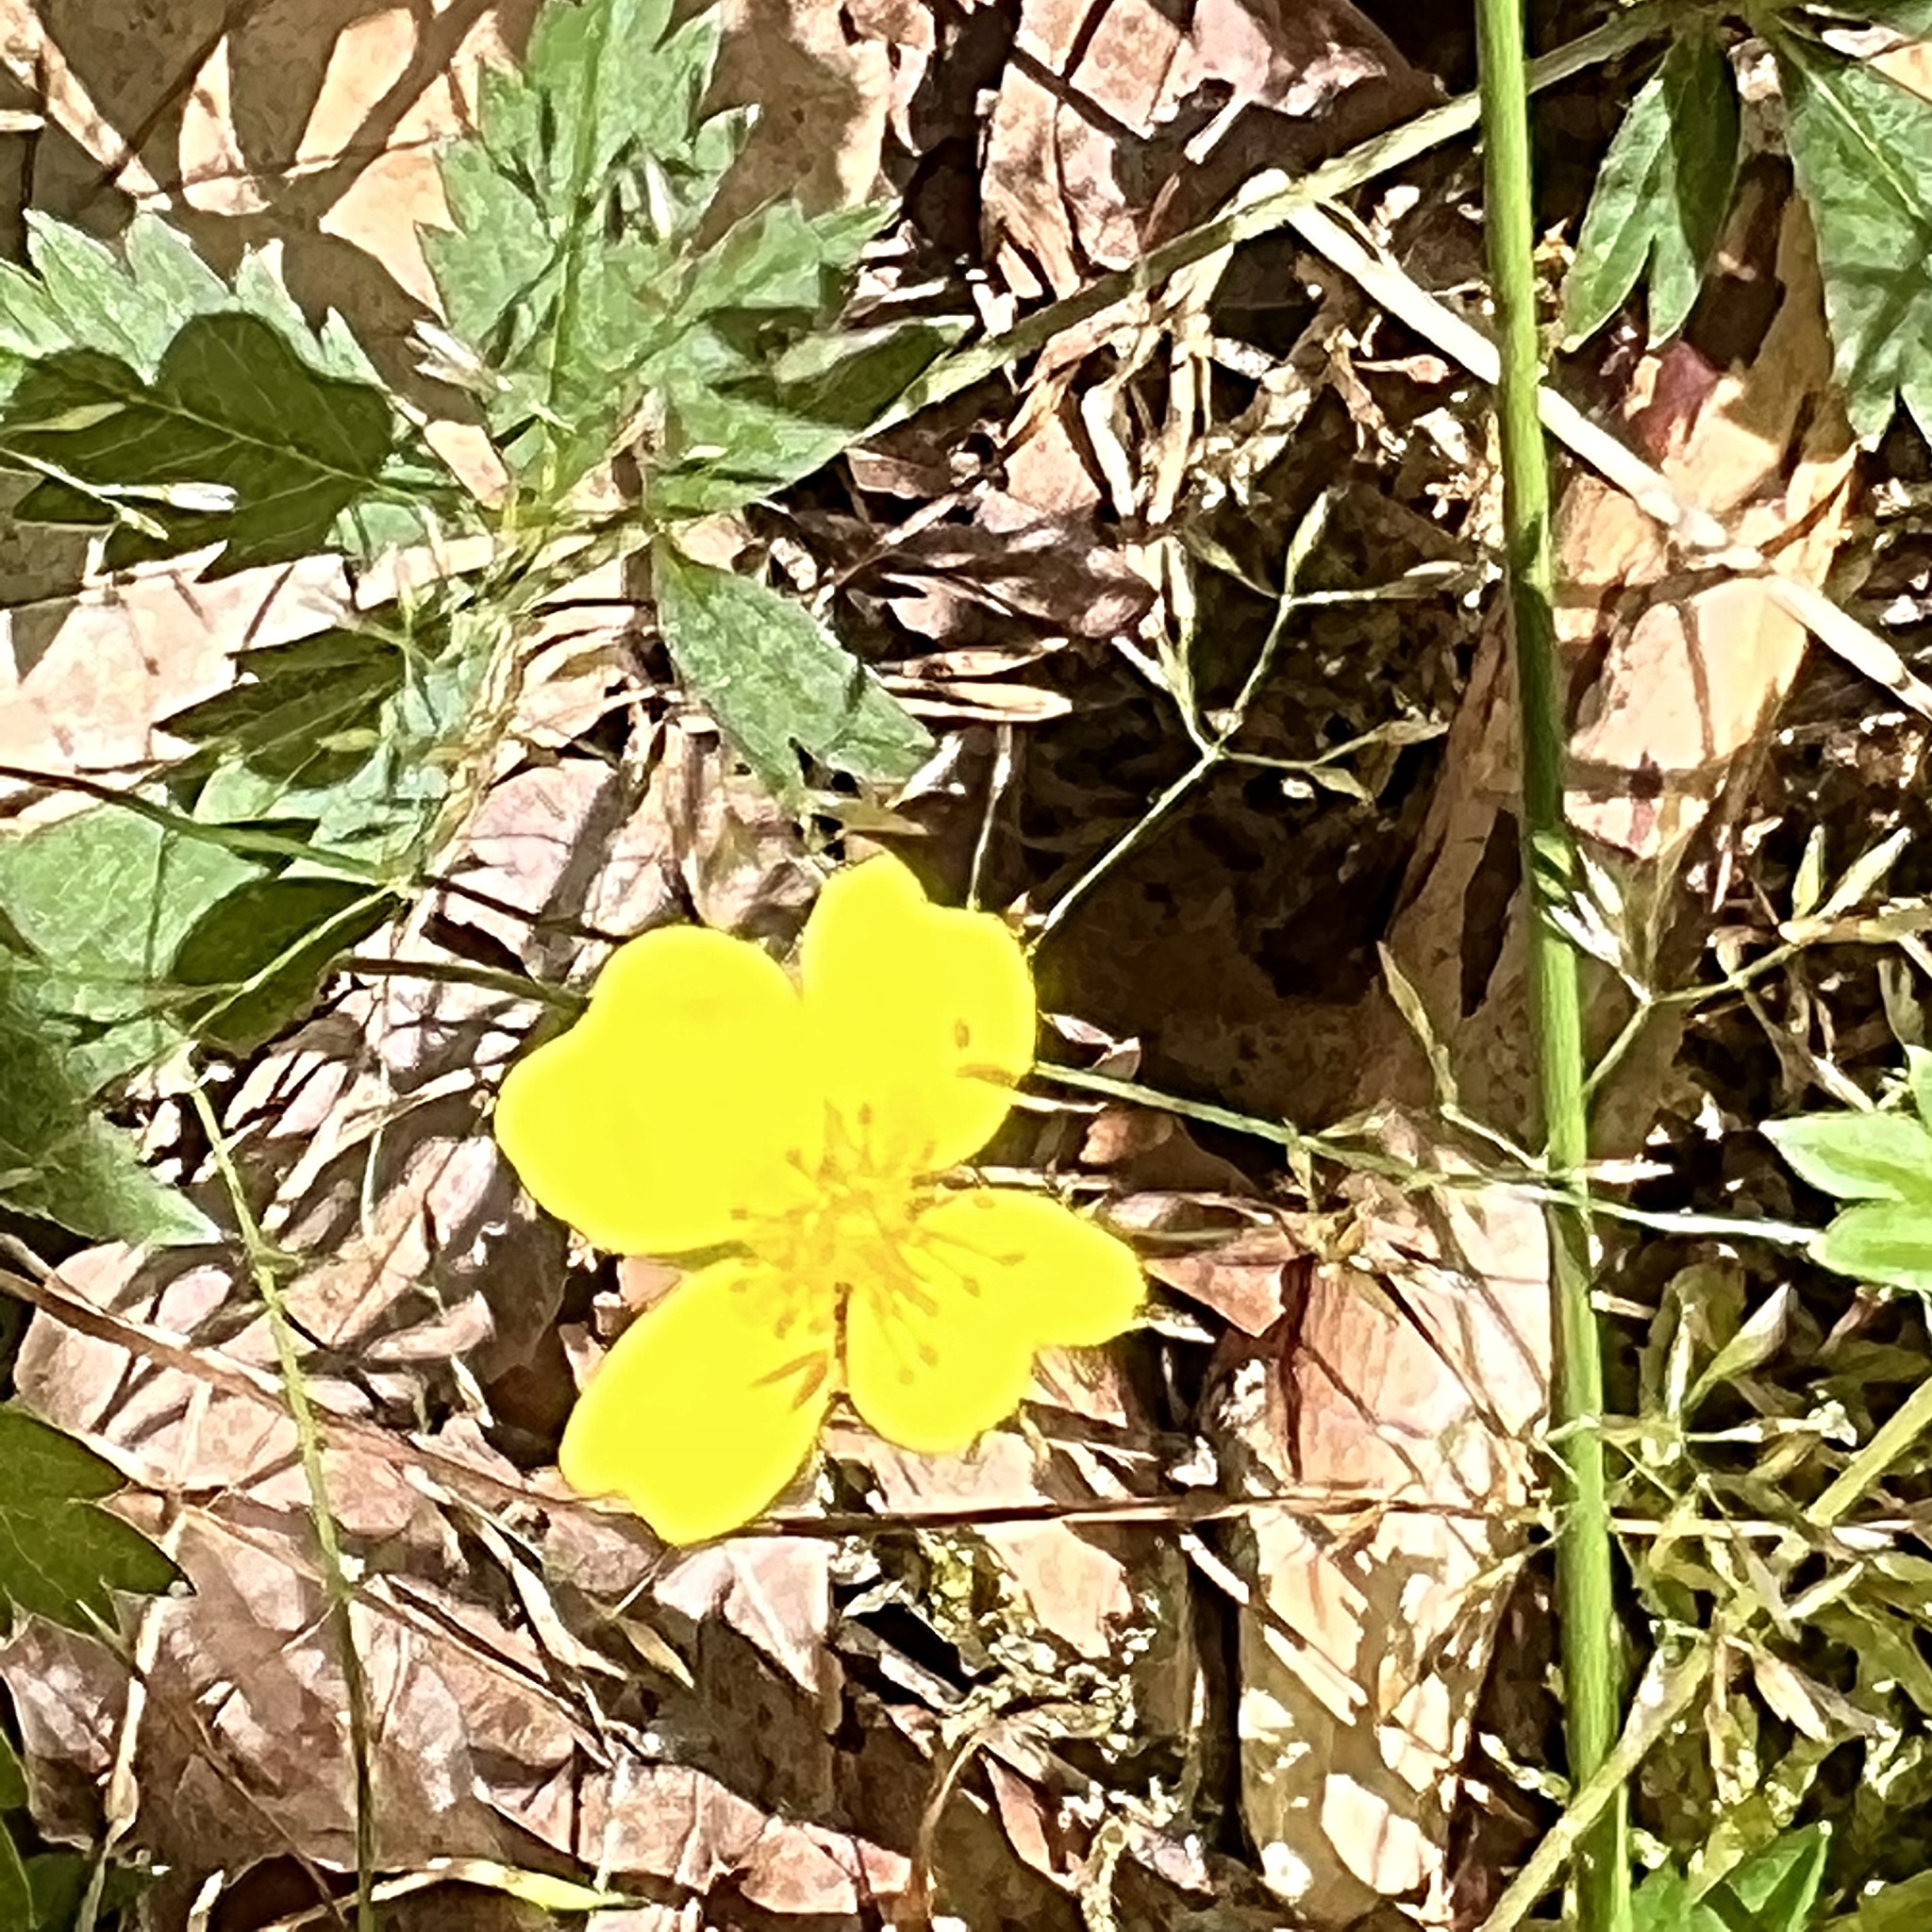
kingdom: Plantae
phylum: Tracheophyta
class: Magnoliopsida
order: Rosales
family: Rosaceae
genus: Potentilla
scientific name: Potentilla erecta
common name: Tormentil
